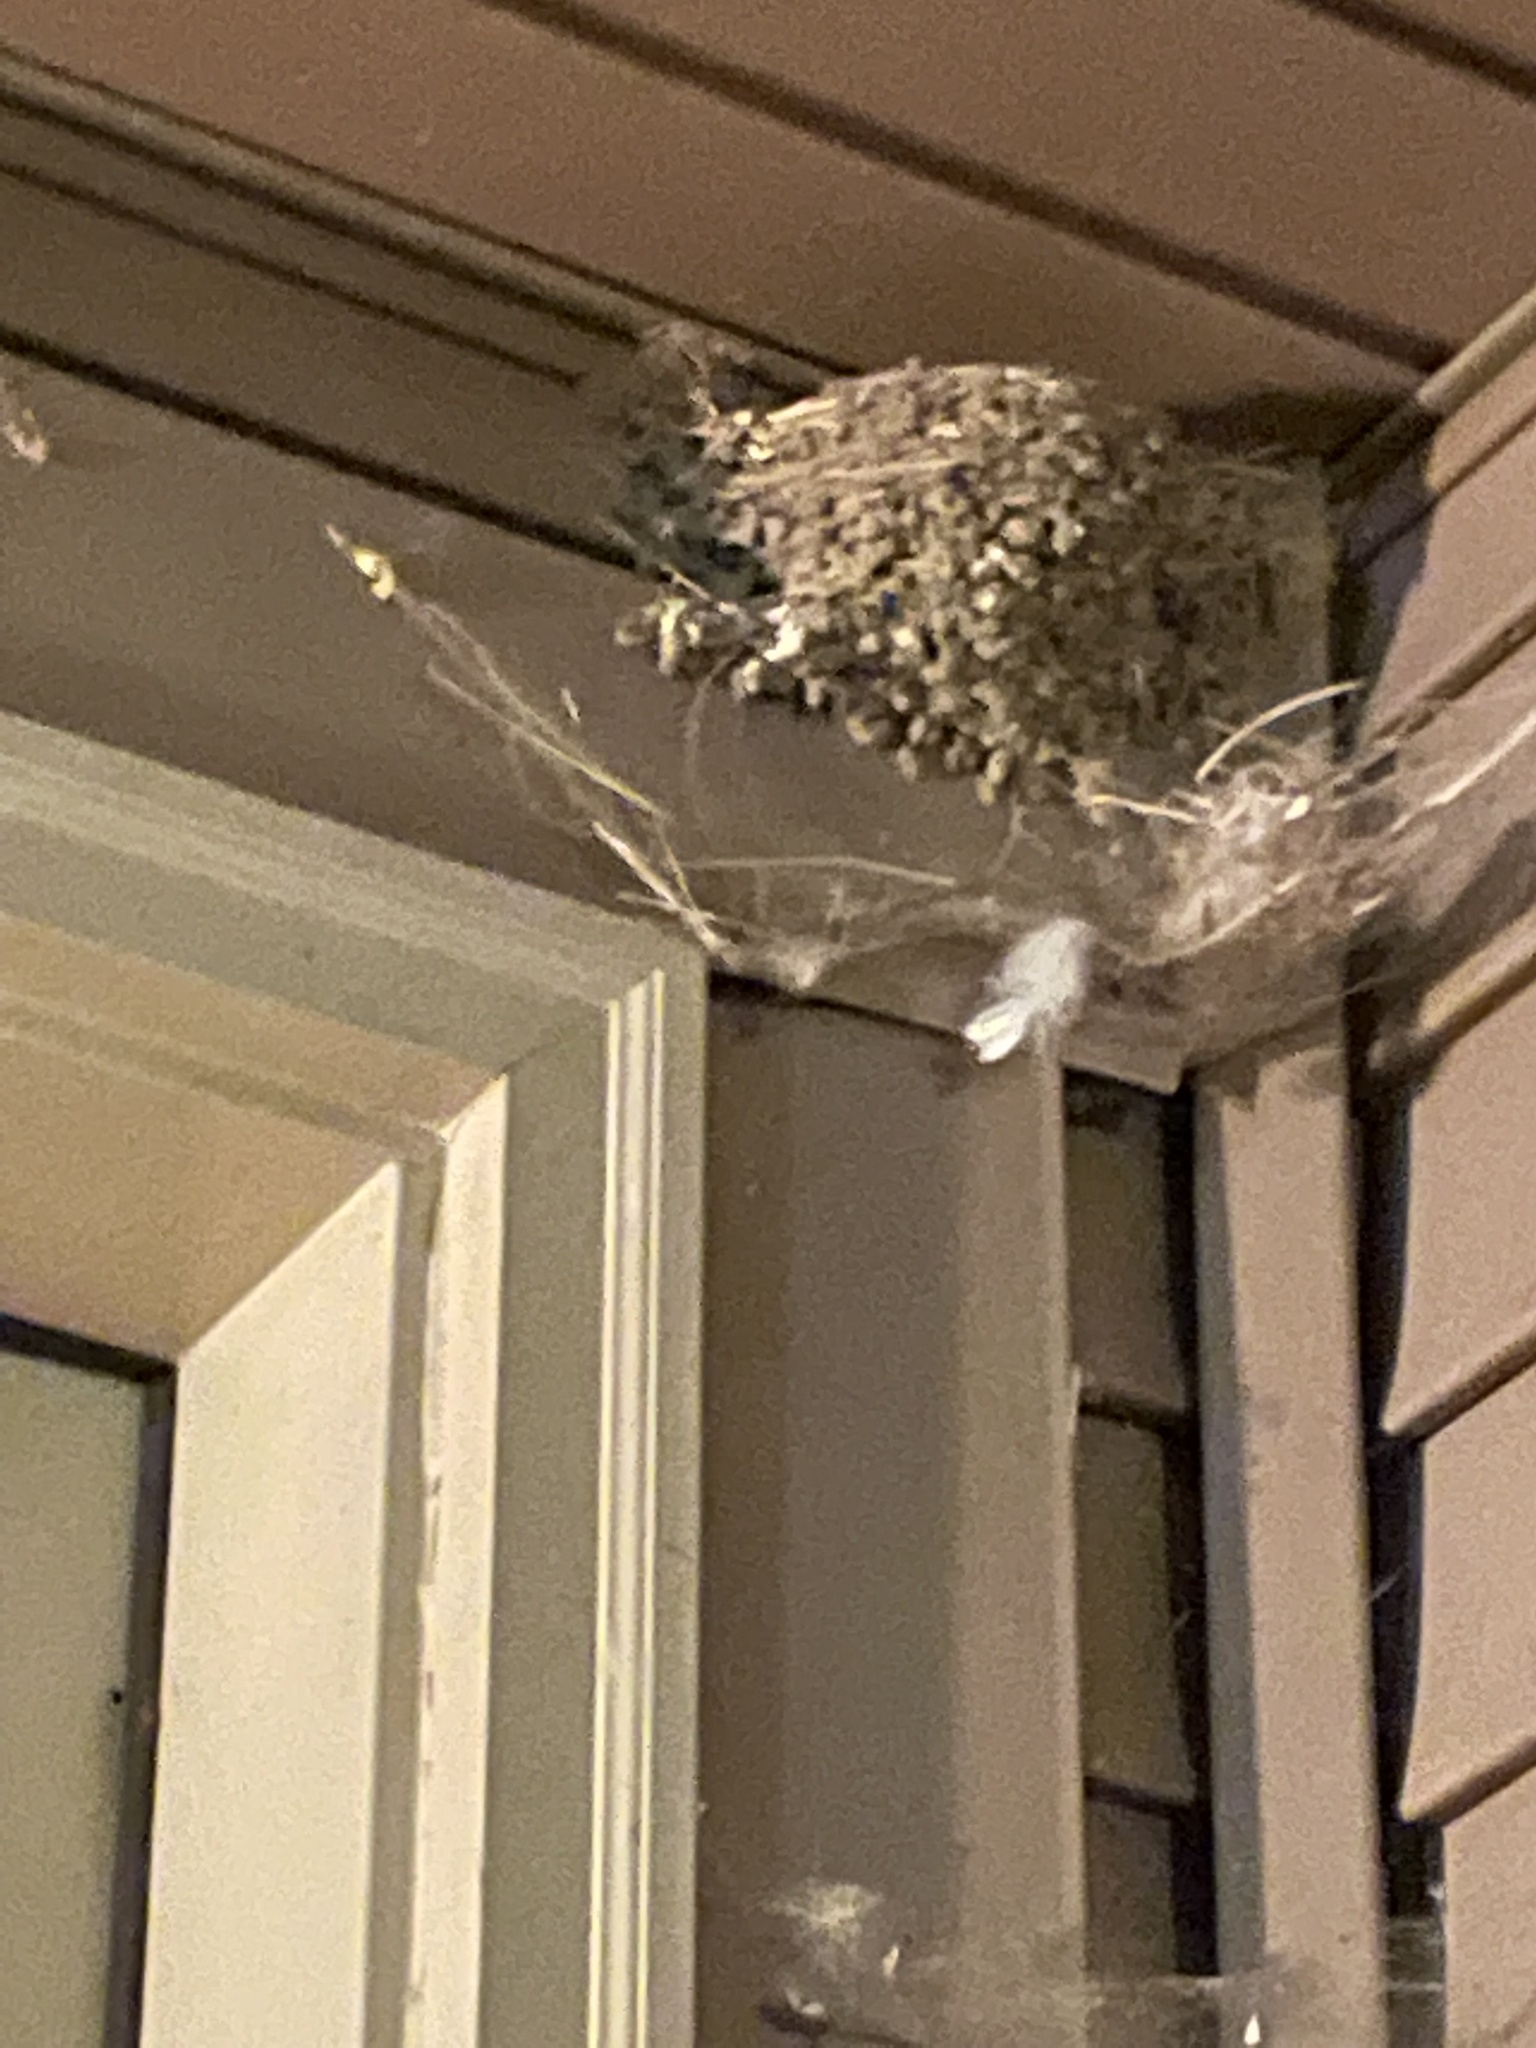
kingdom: Animalia
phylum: Chordata
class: Aves
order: Passeriformes
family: Hirundinidae
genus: Hirundo
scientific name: Hirundo rustica
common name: Barn swallow
